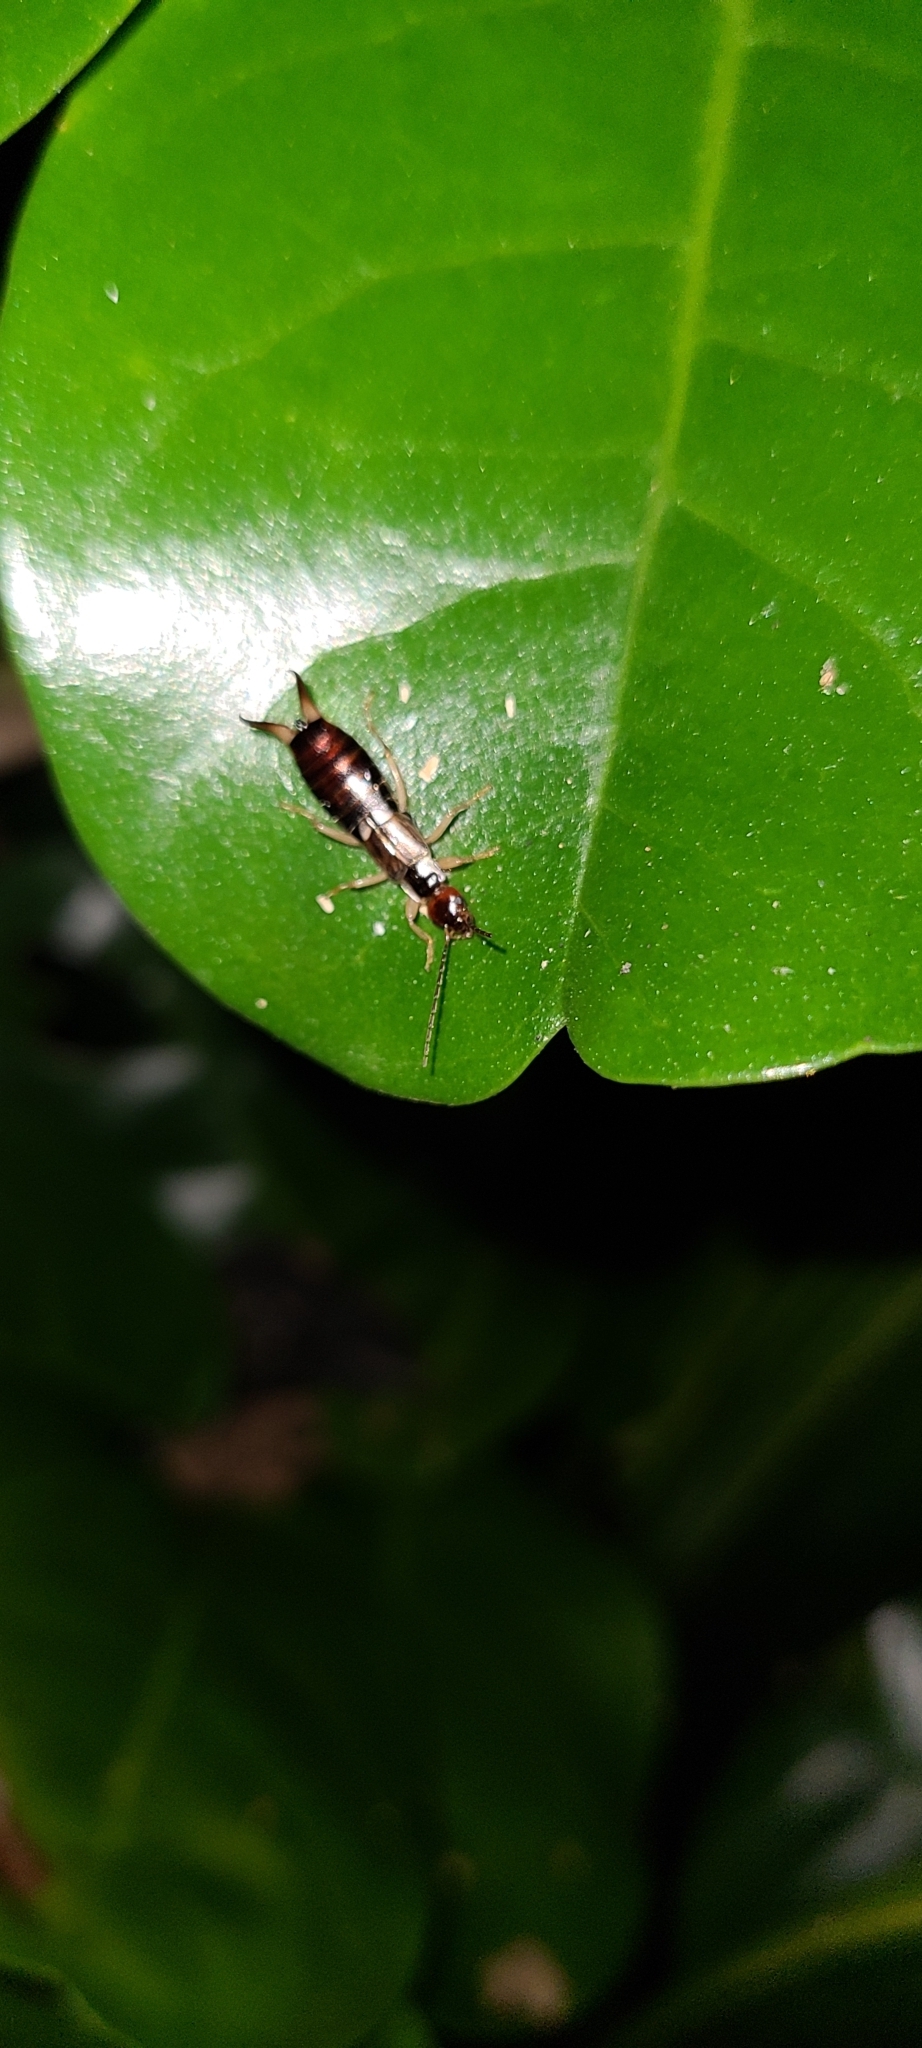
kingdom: Animalia
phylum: Arthropoda
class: Insecta
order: Dermaptera
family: Forficulidae
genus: Forficula
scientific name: Forficula
